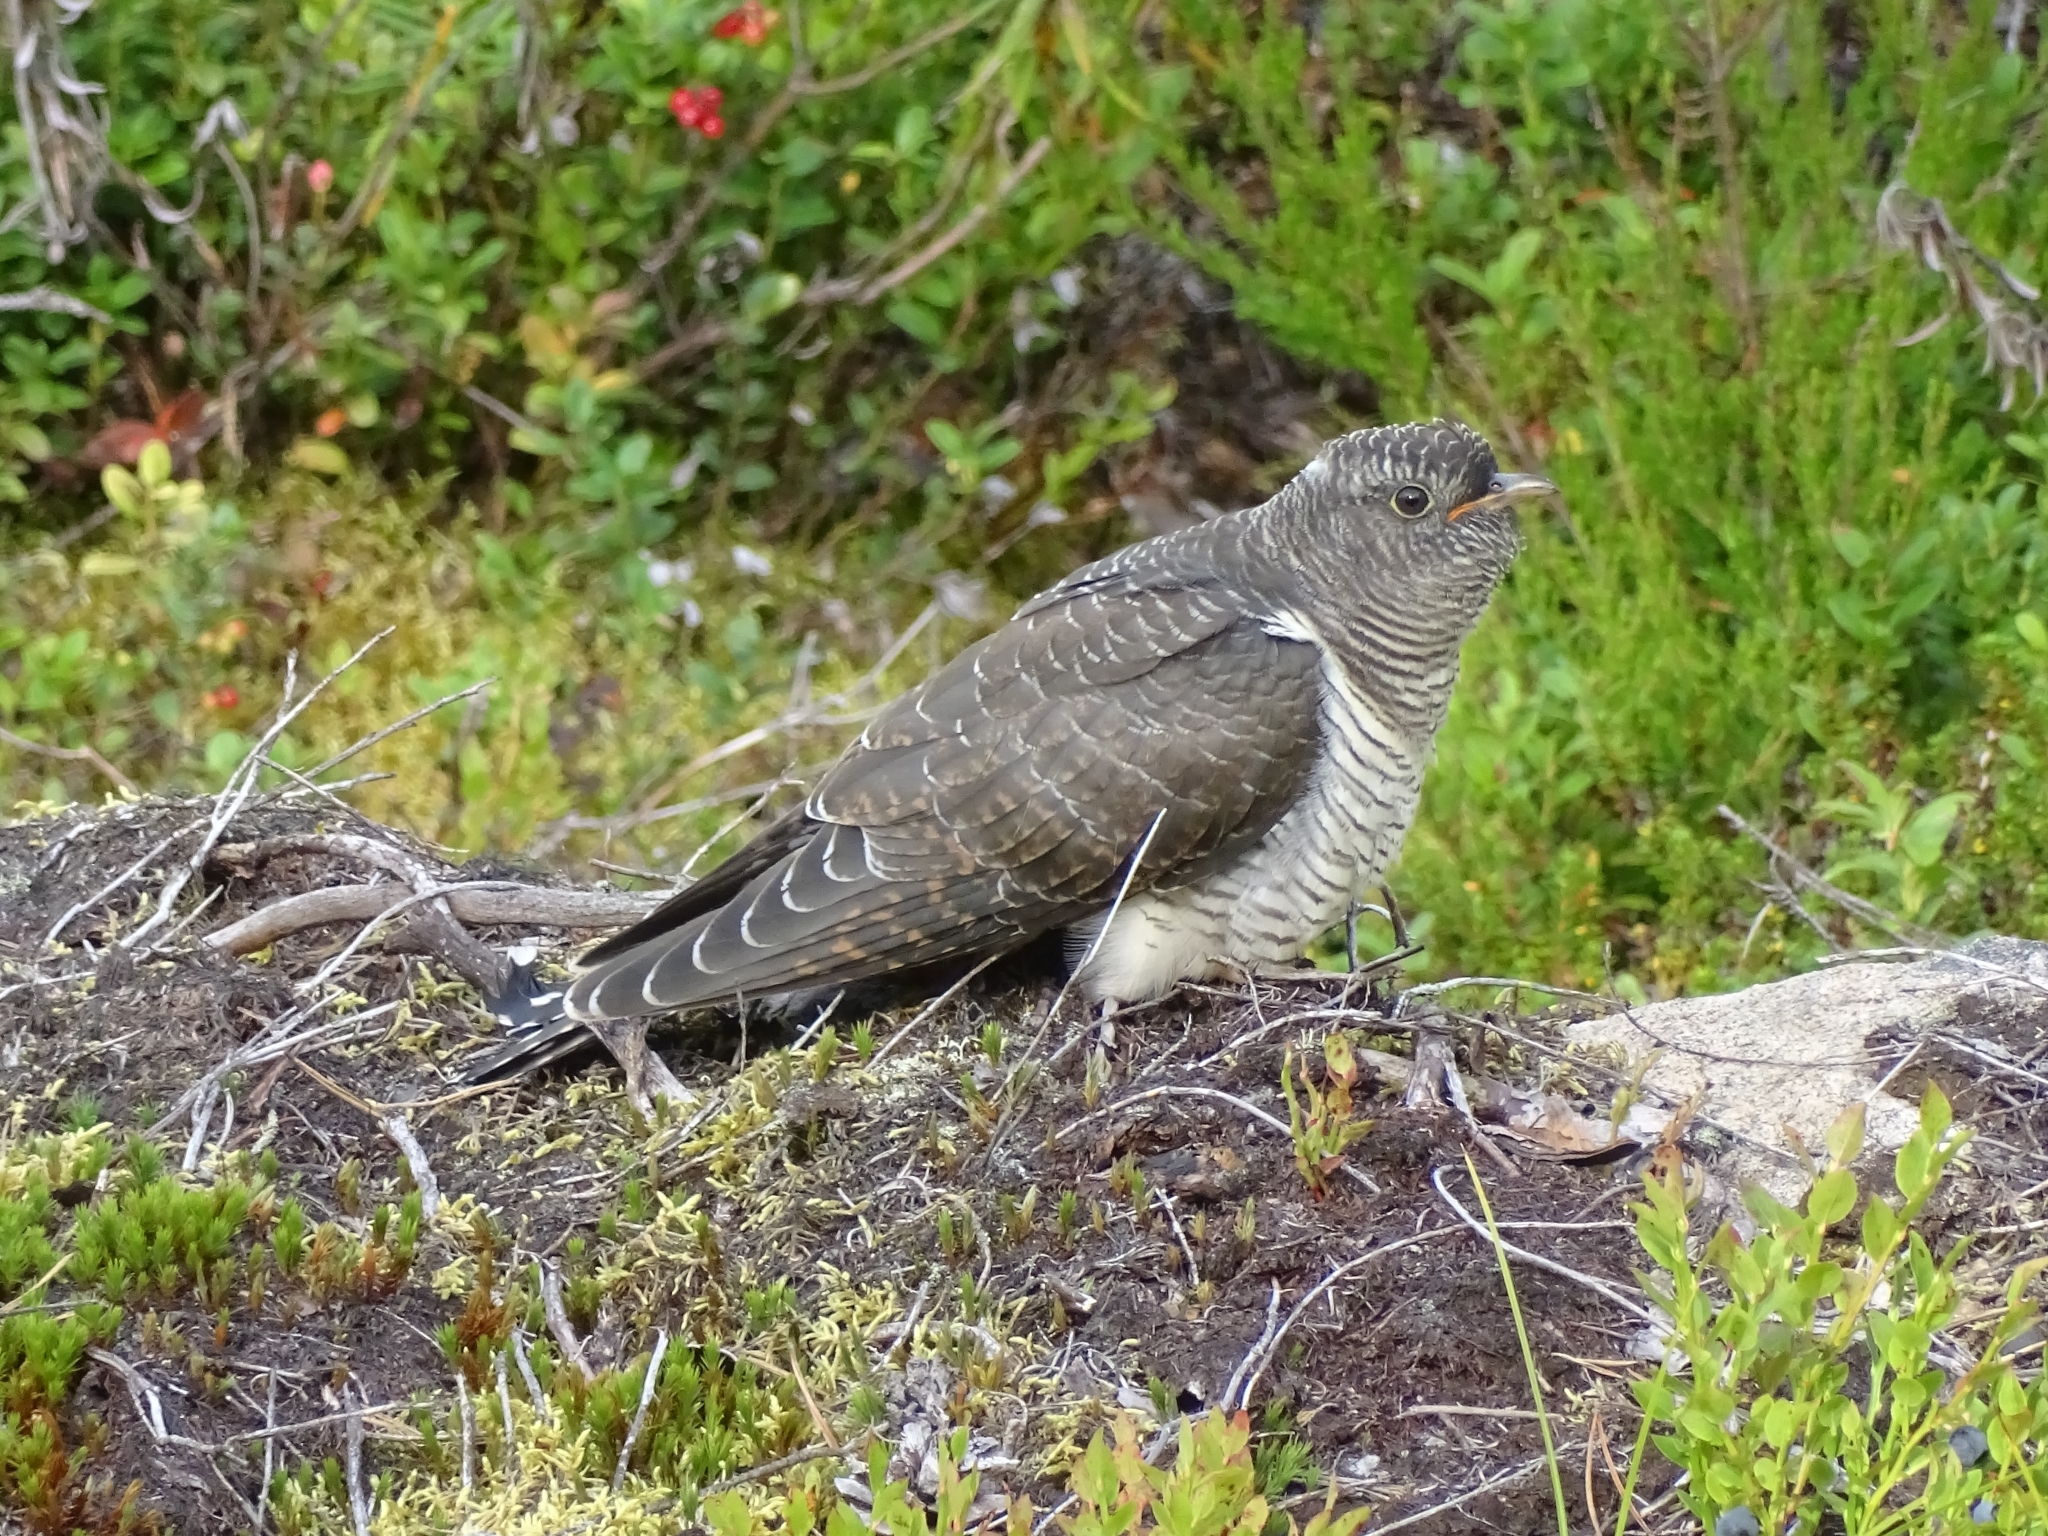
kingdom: Animalia
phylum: Chordata
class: Aves
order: Cuculiformes
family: Cuculidae
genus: Cuculus
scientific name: Cuculus canorus
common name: Common cuckoo
